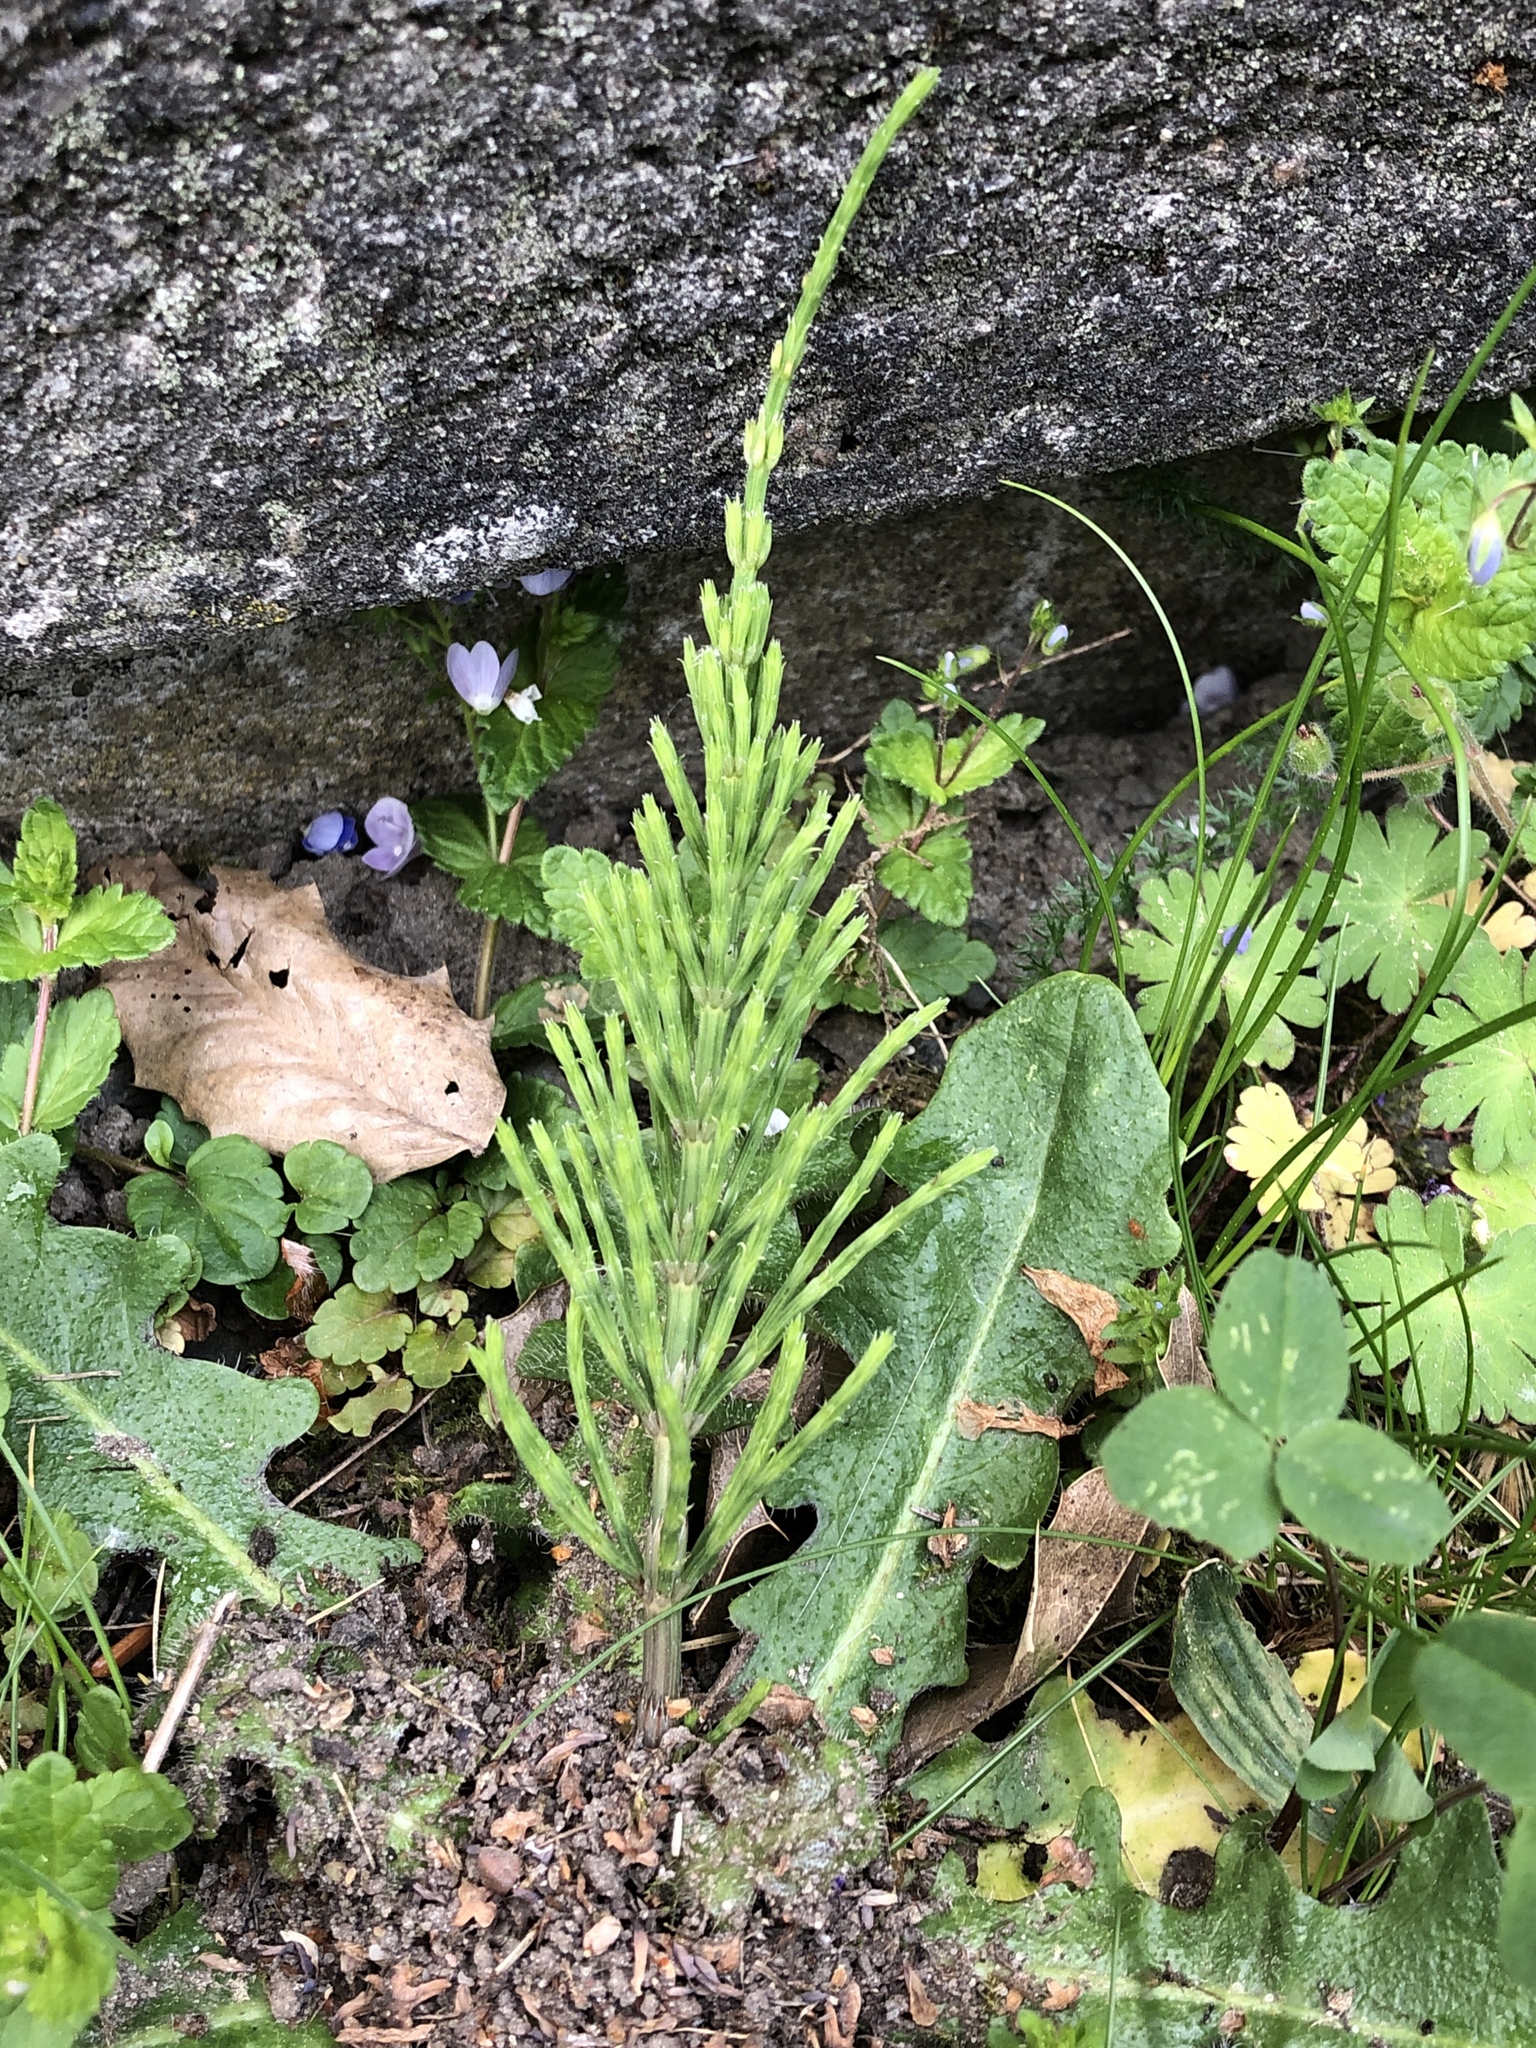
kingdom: Plantae
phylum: Tracheophyta
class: Polypodiopsida
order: Equisetales
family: Equisetaceae
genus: Equisetum
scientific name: Equisetum arvense
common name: Field horsetail
